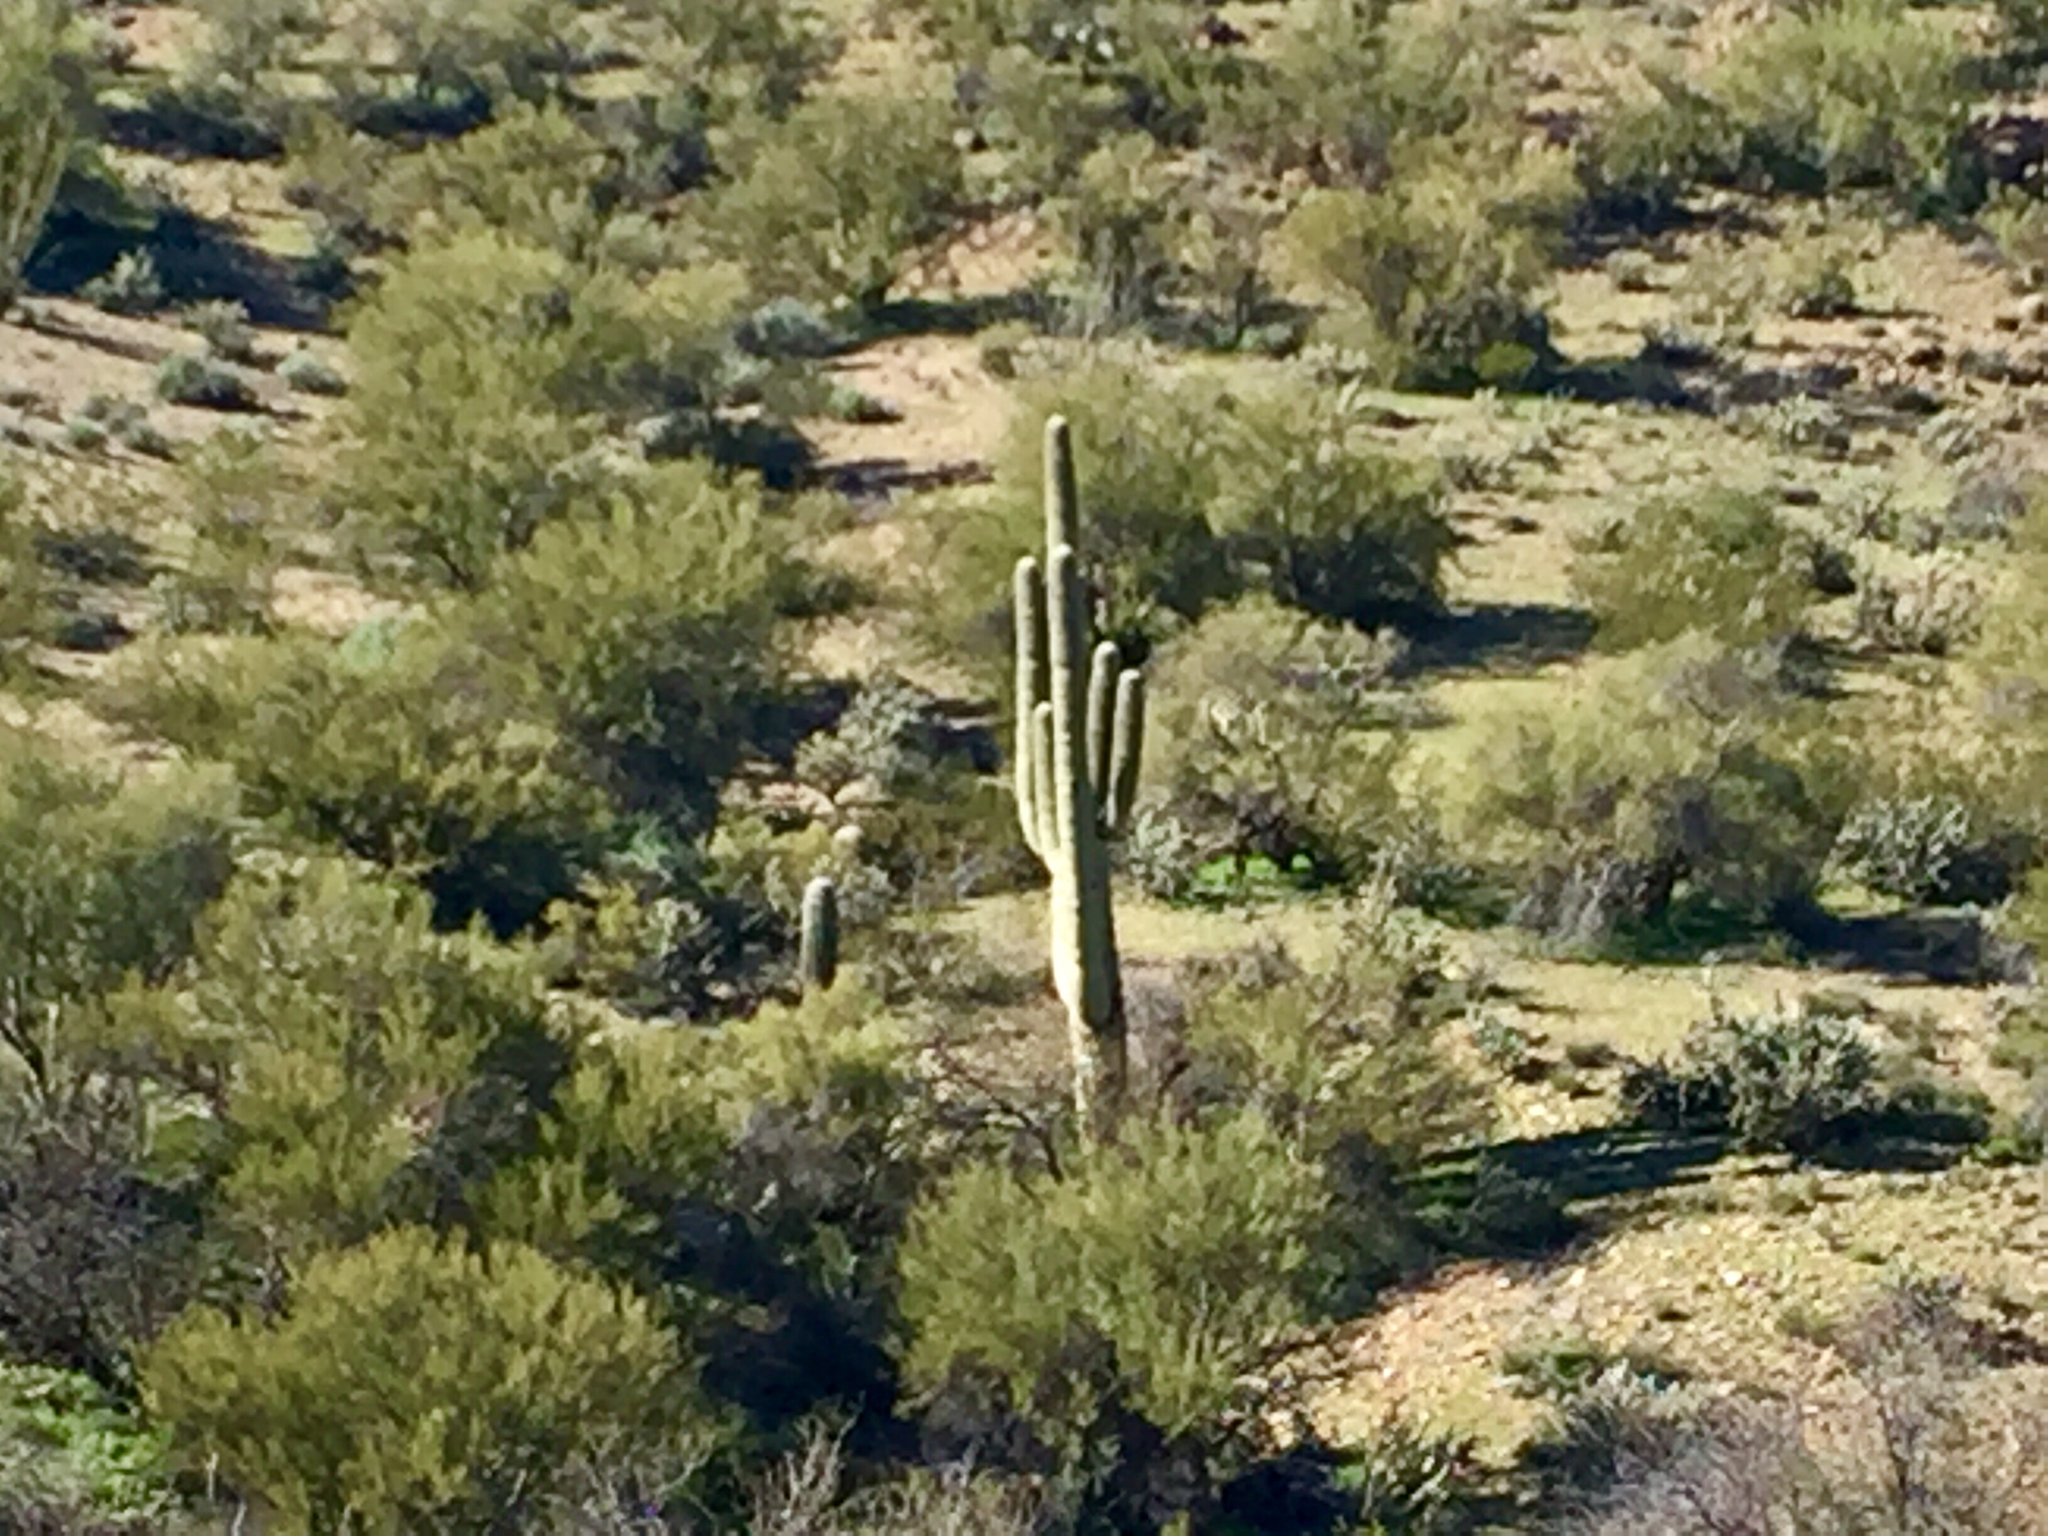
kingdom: Plantae
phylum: Tracheophyta
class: Magnoliopsida
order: Caryophyllales
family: Cactaceae
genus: Carnegiea
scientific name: Carnegiea gigantea
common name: Saguaro
